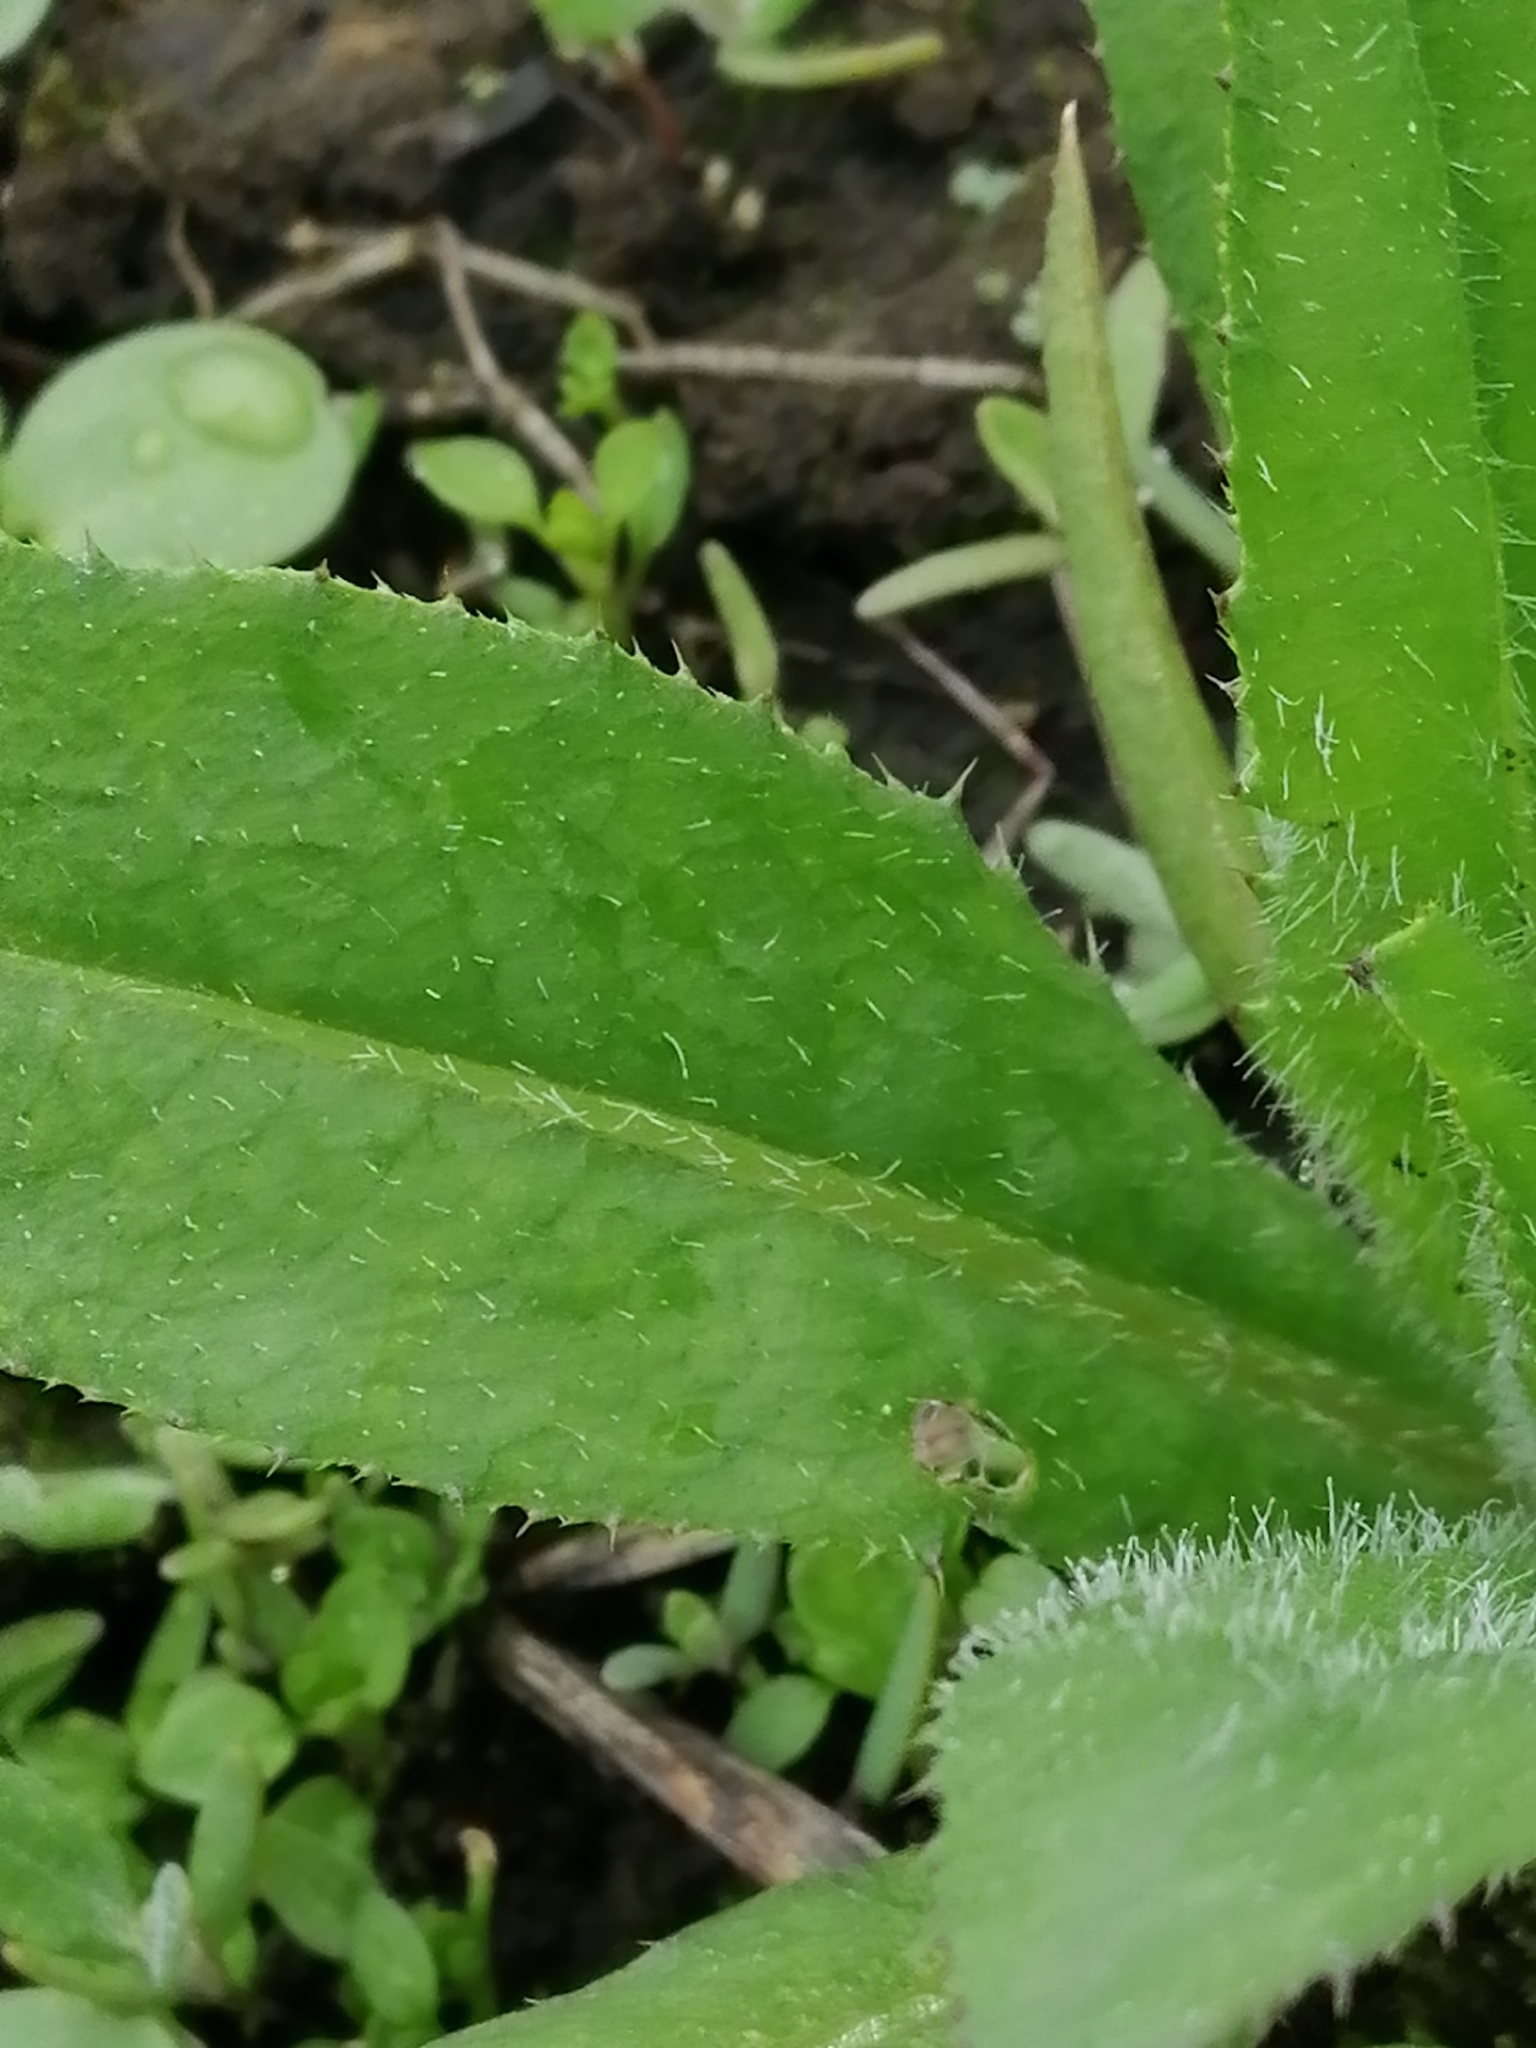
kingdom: Plantae
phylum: Tracheophyta
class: Magnoliopsida
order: Asterales
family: Asteraceae
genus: Cirsium
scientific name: Cirsium arvense
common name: Creeping thistle
